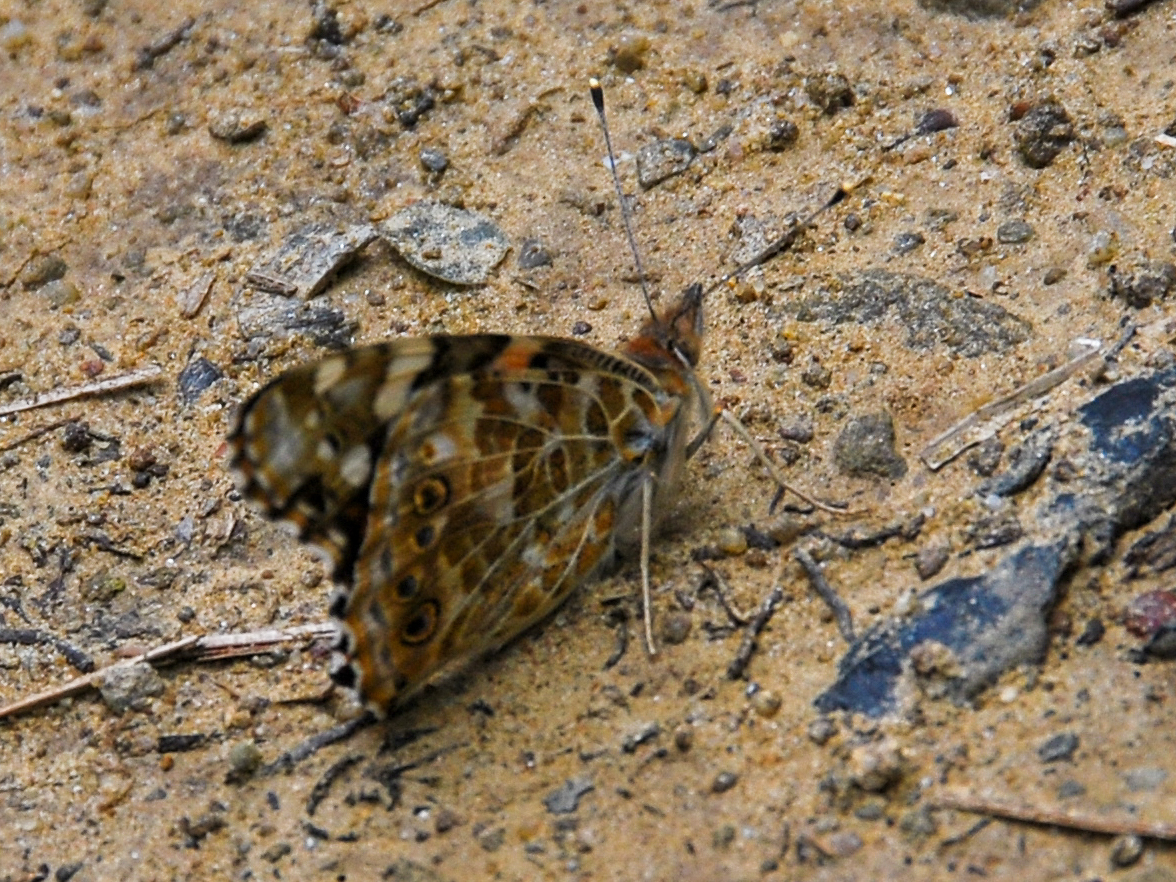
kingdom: Animalia
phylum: Arthropoda
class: Insecta
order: Lepidoptera
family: Nymphalidae
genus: Vanessa
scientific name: Vanessa cardui
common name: Painted lady
